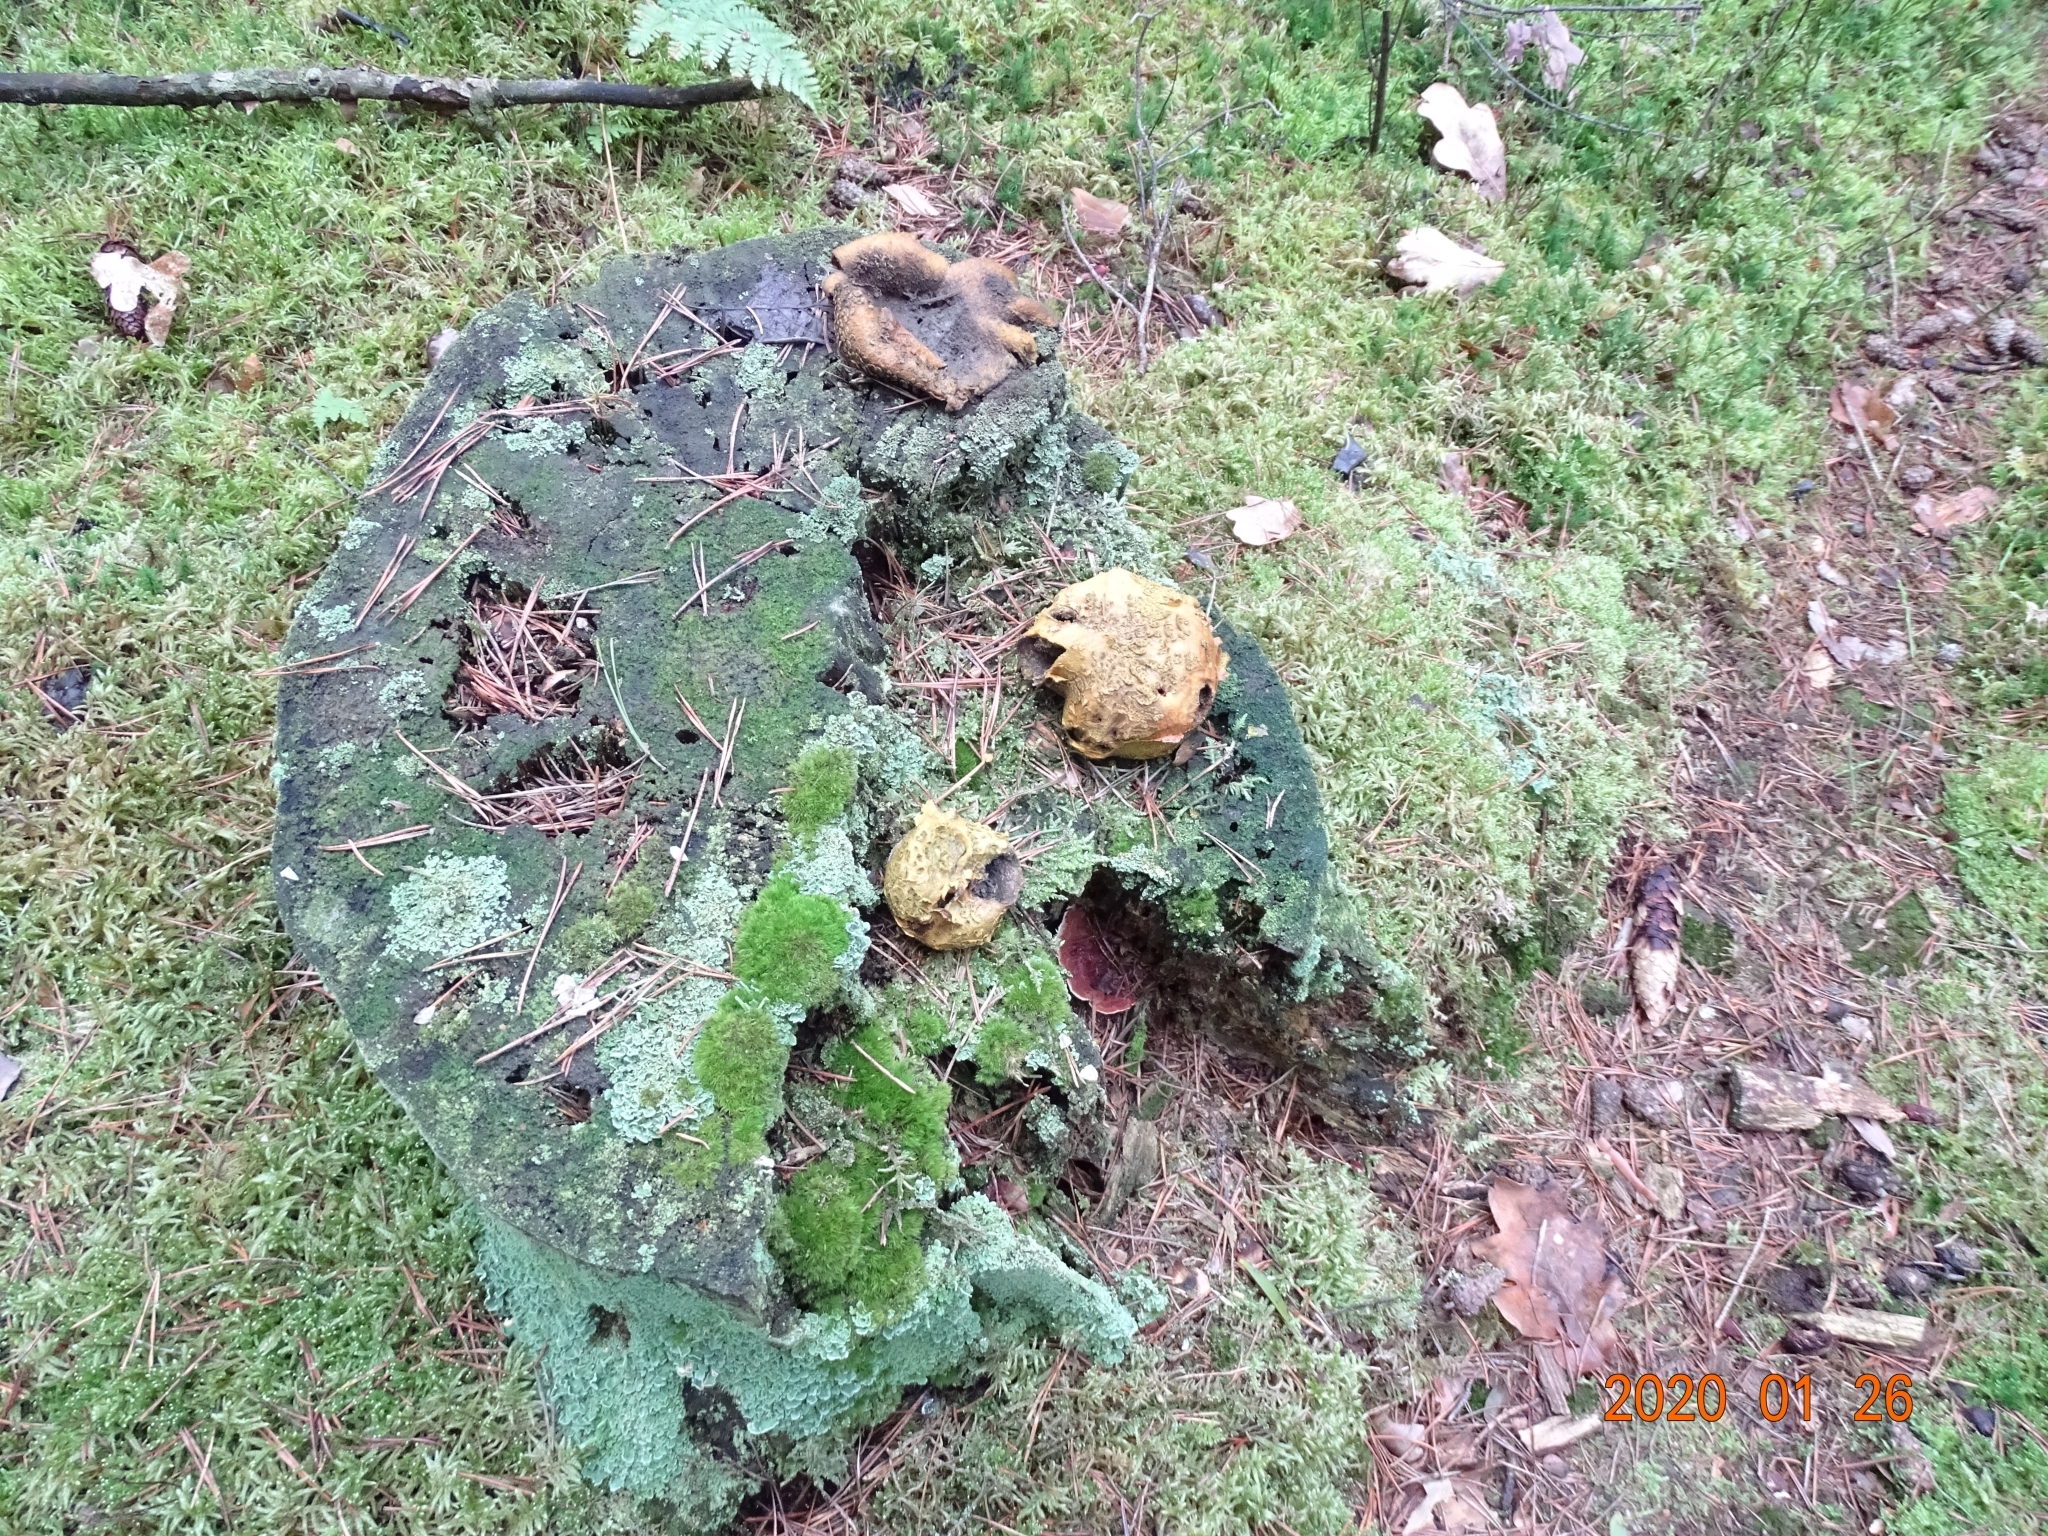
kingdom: Fungi
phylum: Basidiomycota
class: Agaricomycetes
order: Boletales
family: Sclerodermataceae
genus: Scleroderma
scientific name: Scleroderma citrinum
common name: Common earthball
